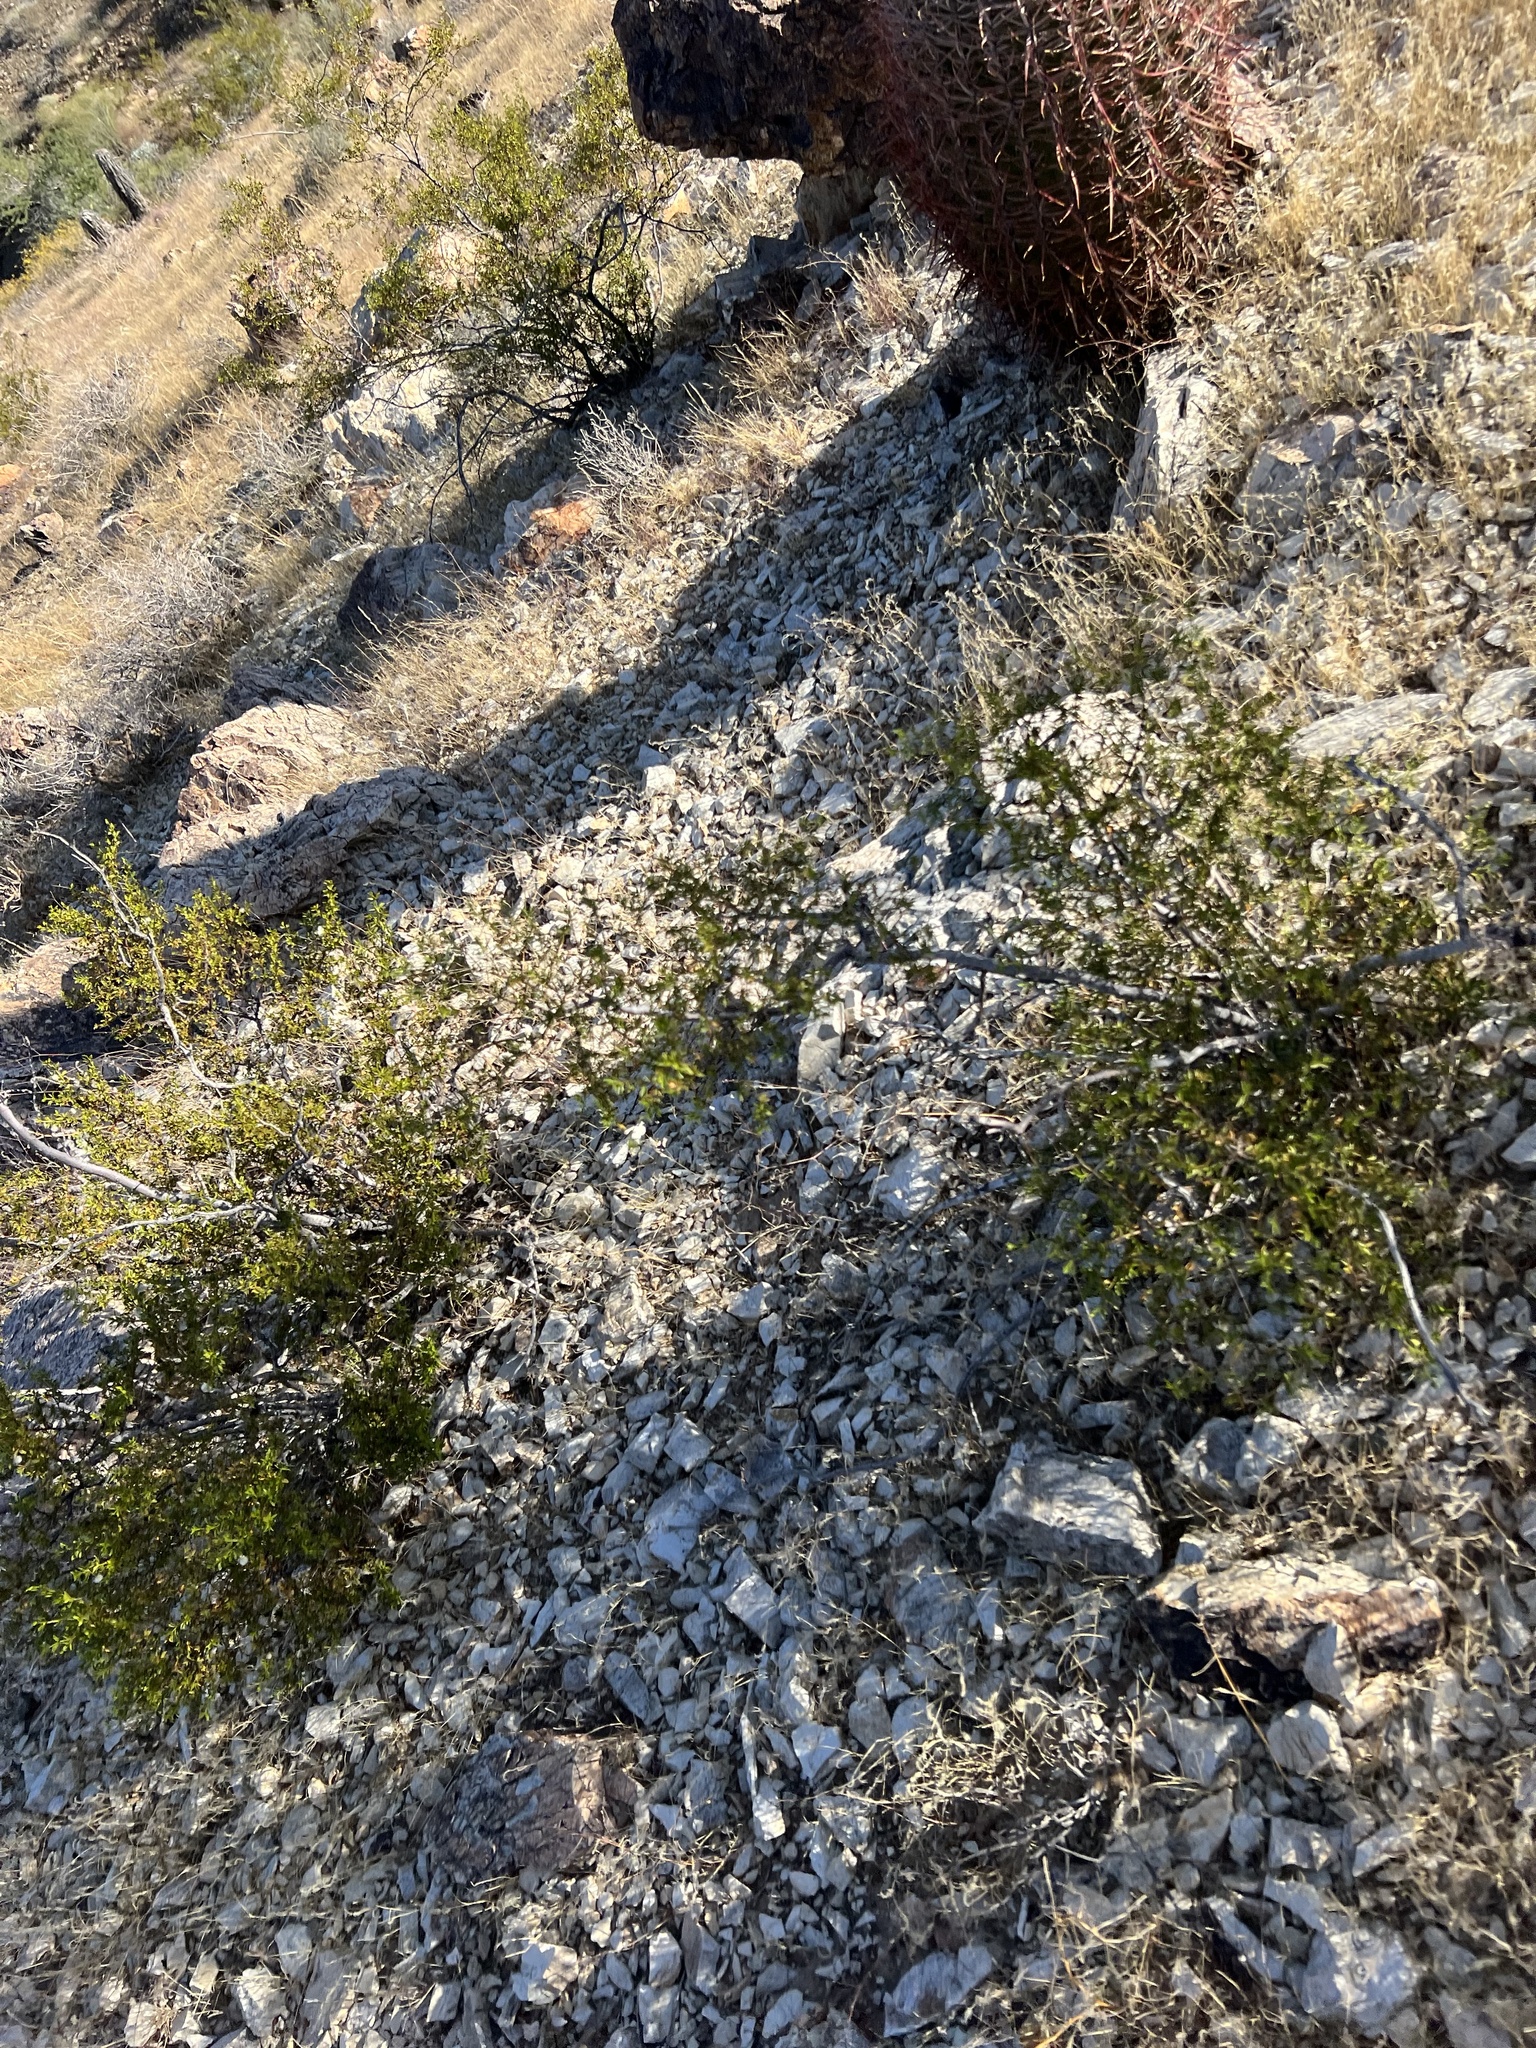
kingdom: Plantae
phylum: Tracheophyta
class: Magnoliopsida
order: Zygophyllales
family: Zygophyllaceae
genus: Larrea
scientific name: Larrea tridentata
